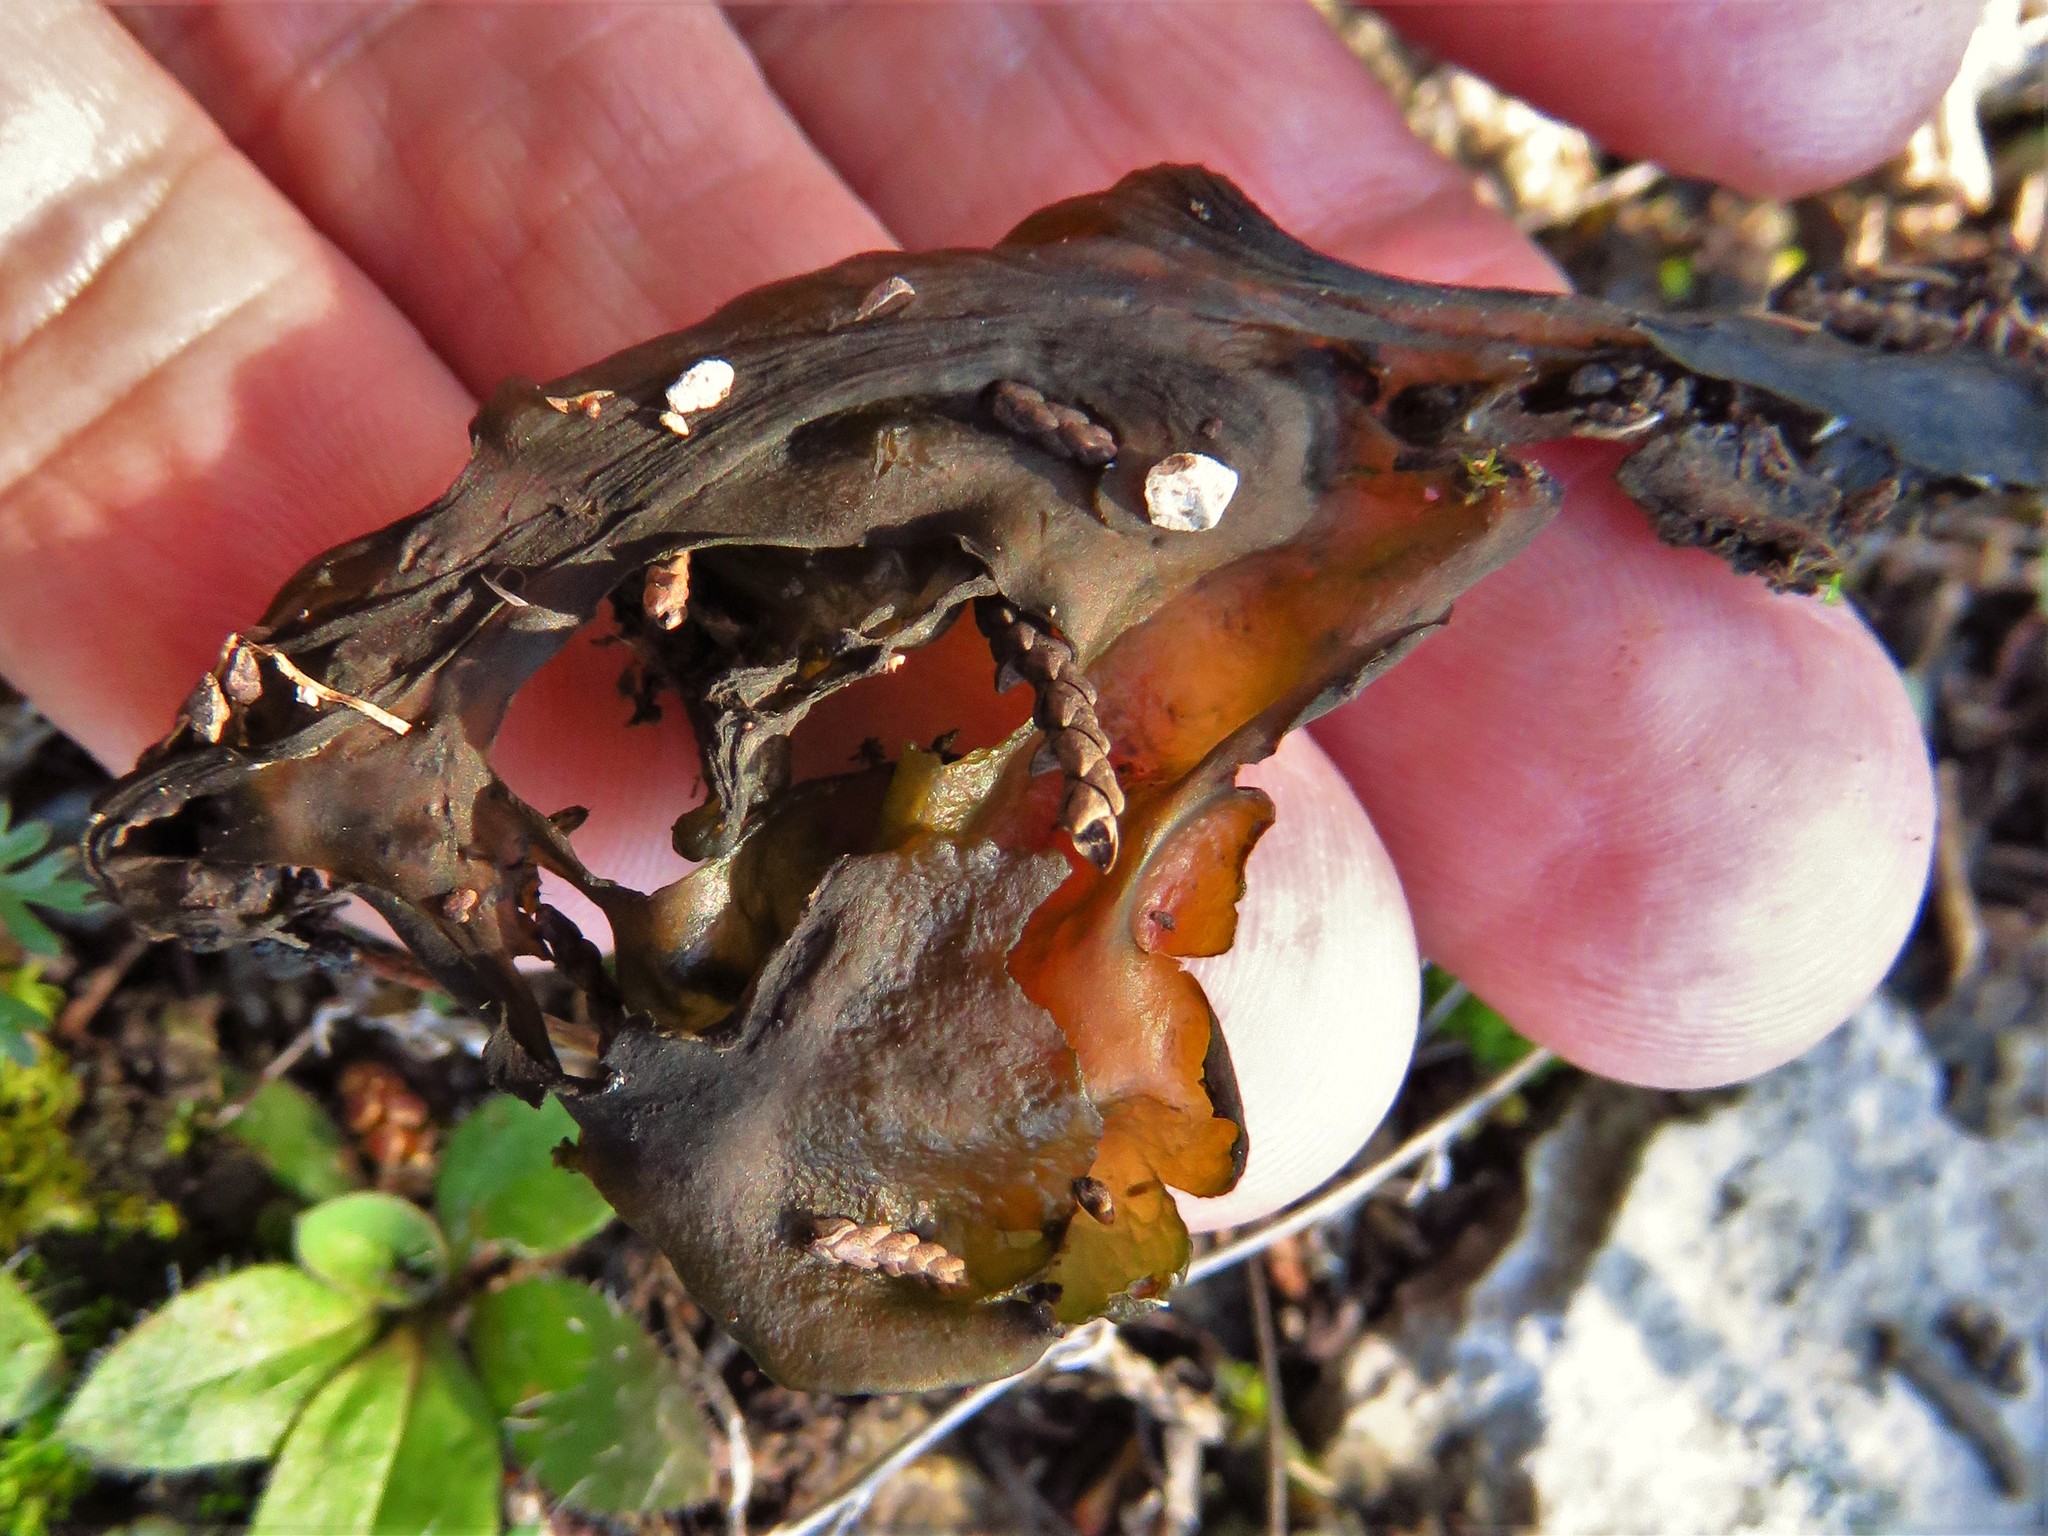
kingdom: Bacteria
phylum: Cyanobacteria
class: Cyanobacteriia
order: Cyanobacteriales
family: Nostocaceae
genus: Nostoc
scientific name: Nostoc commune
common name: Star jelly
